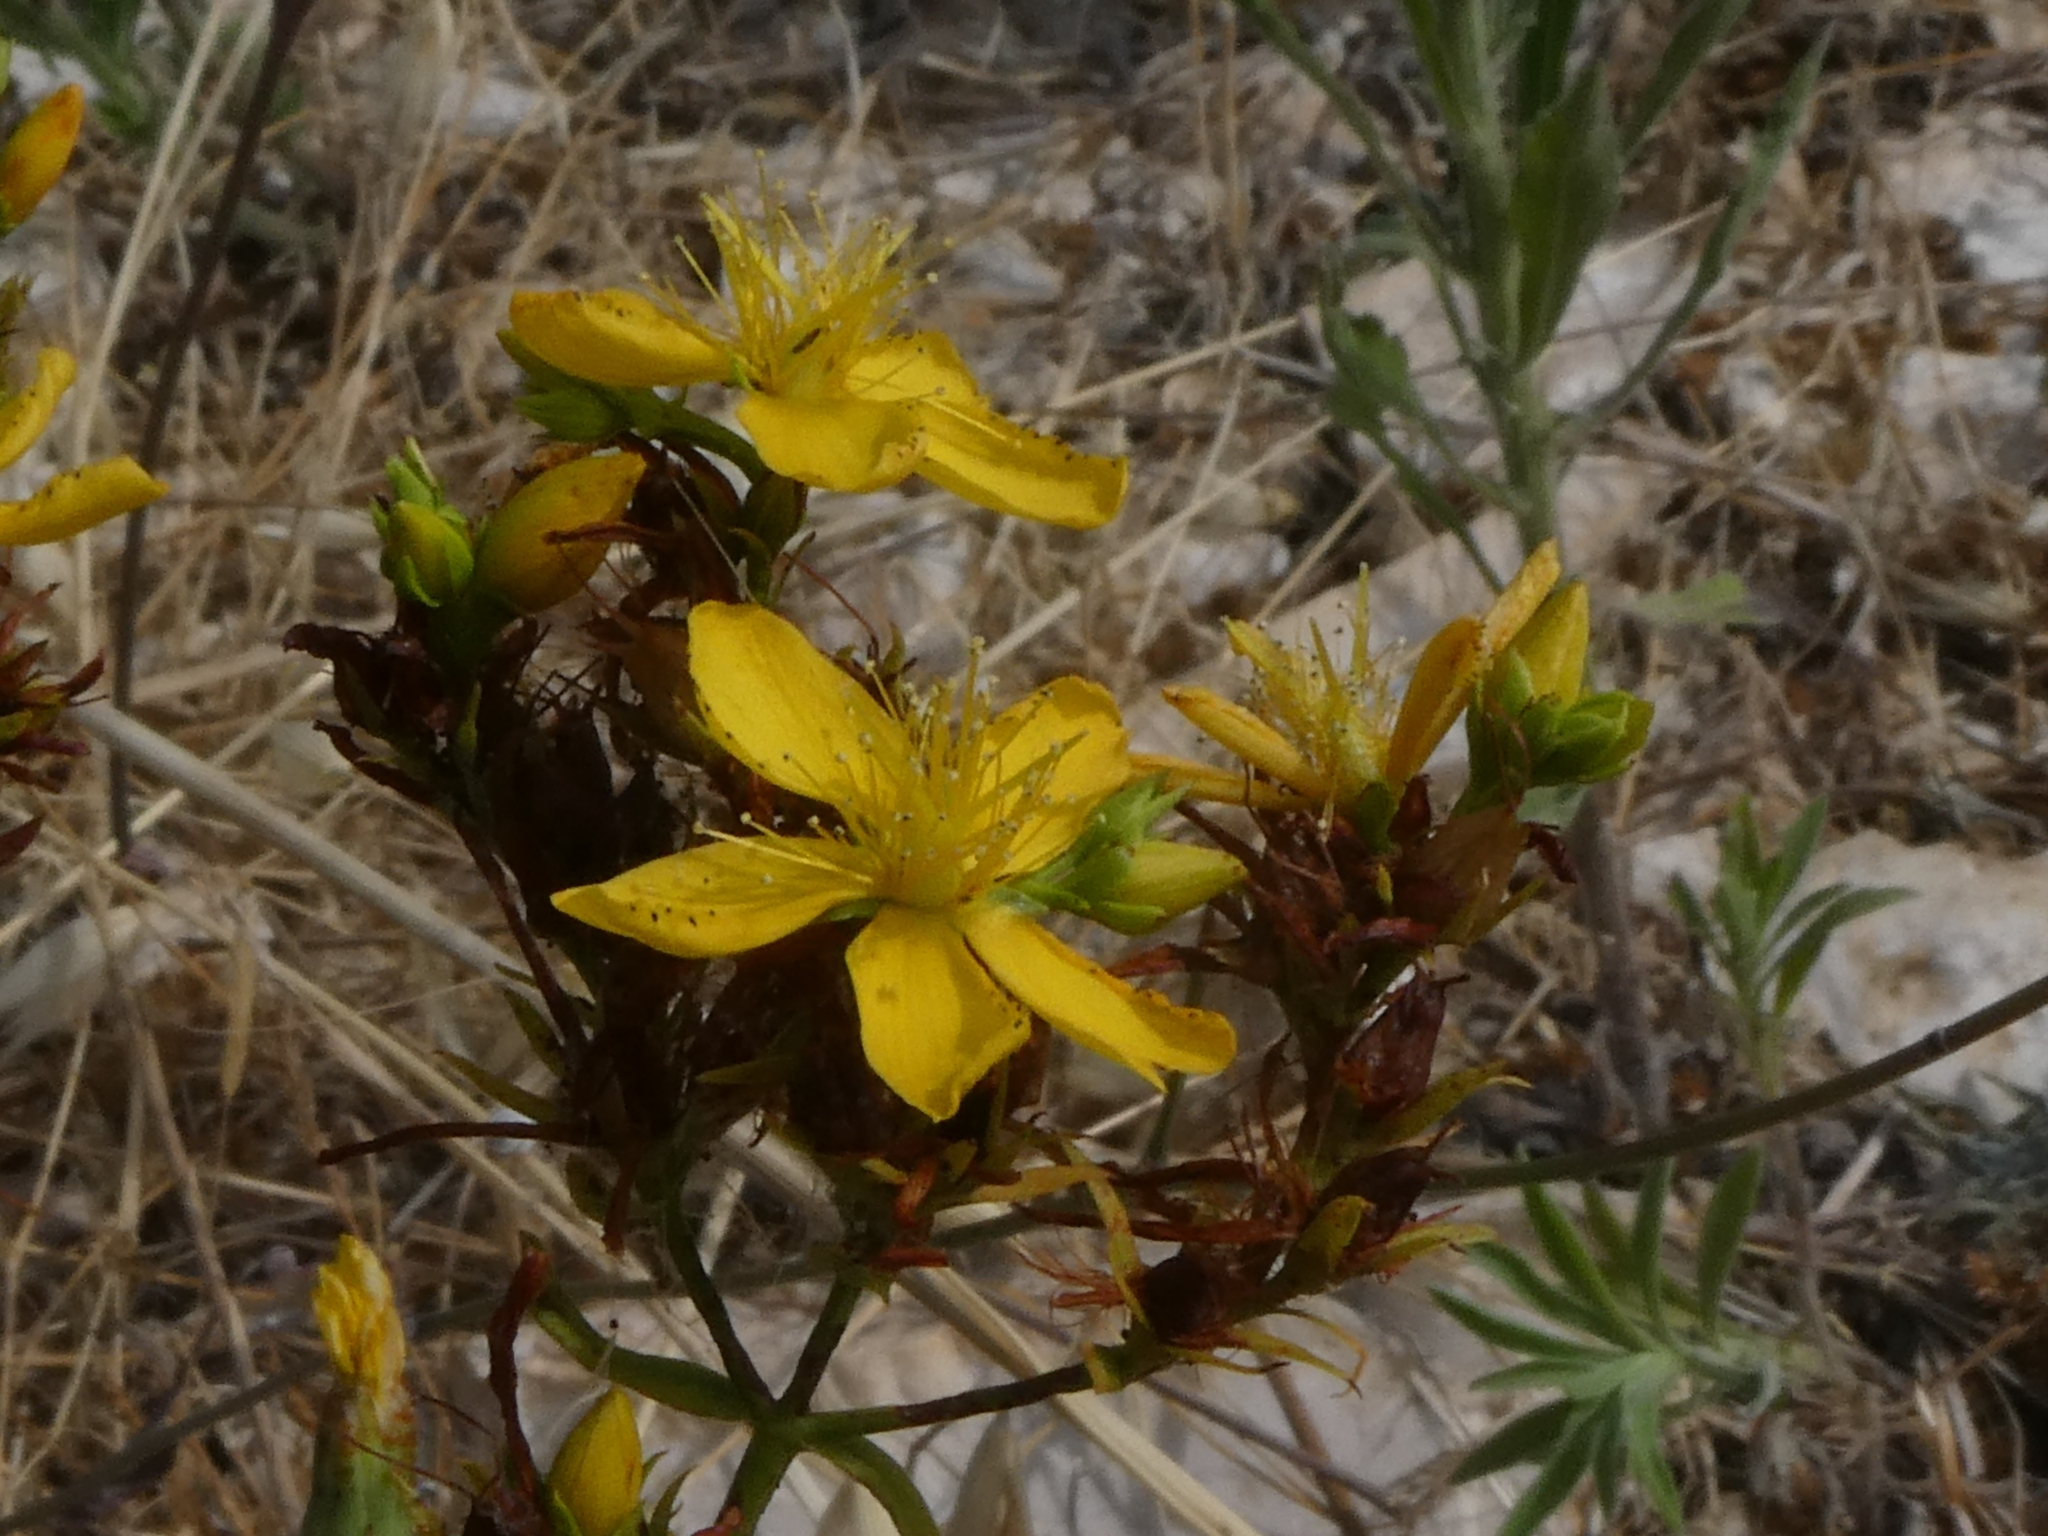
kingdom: Plantae
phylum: Tracheophyta
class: Magnoliopsida
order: Malpighiales
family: Hypericaceae
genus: Hypericum
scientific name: Hypericum perforatum
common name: Common st. johnswort
